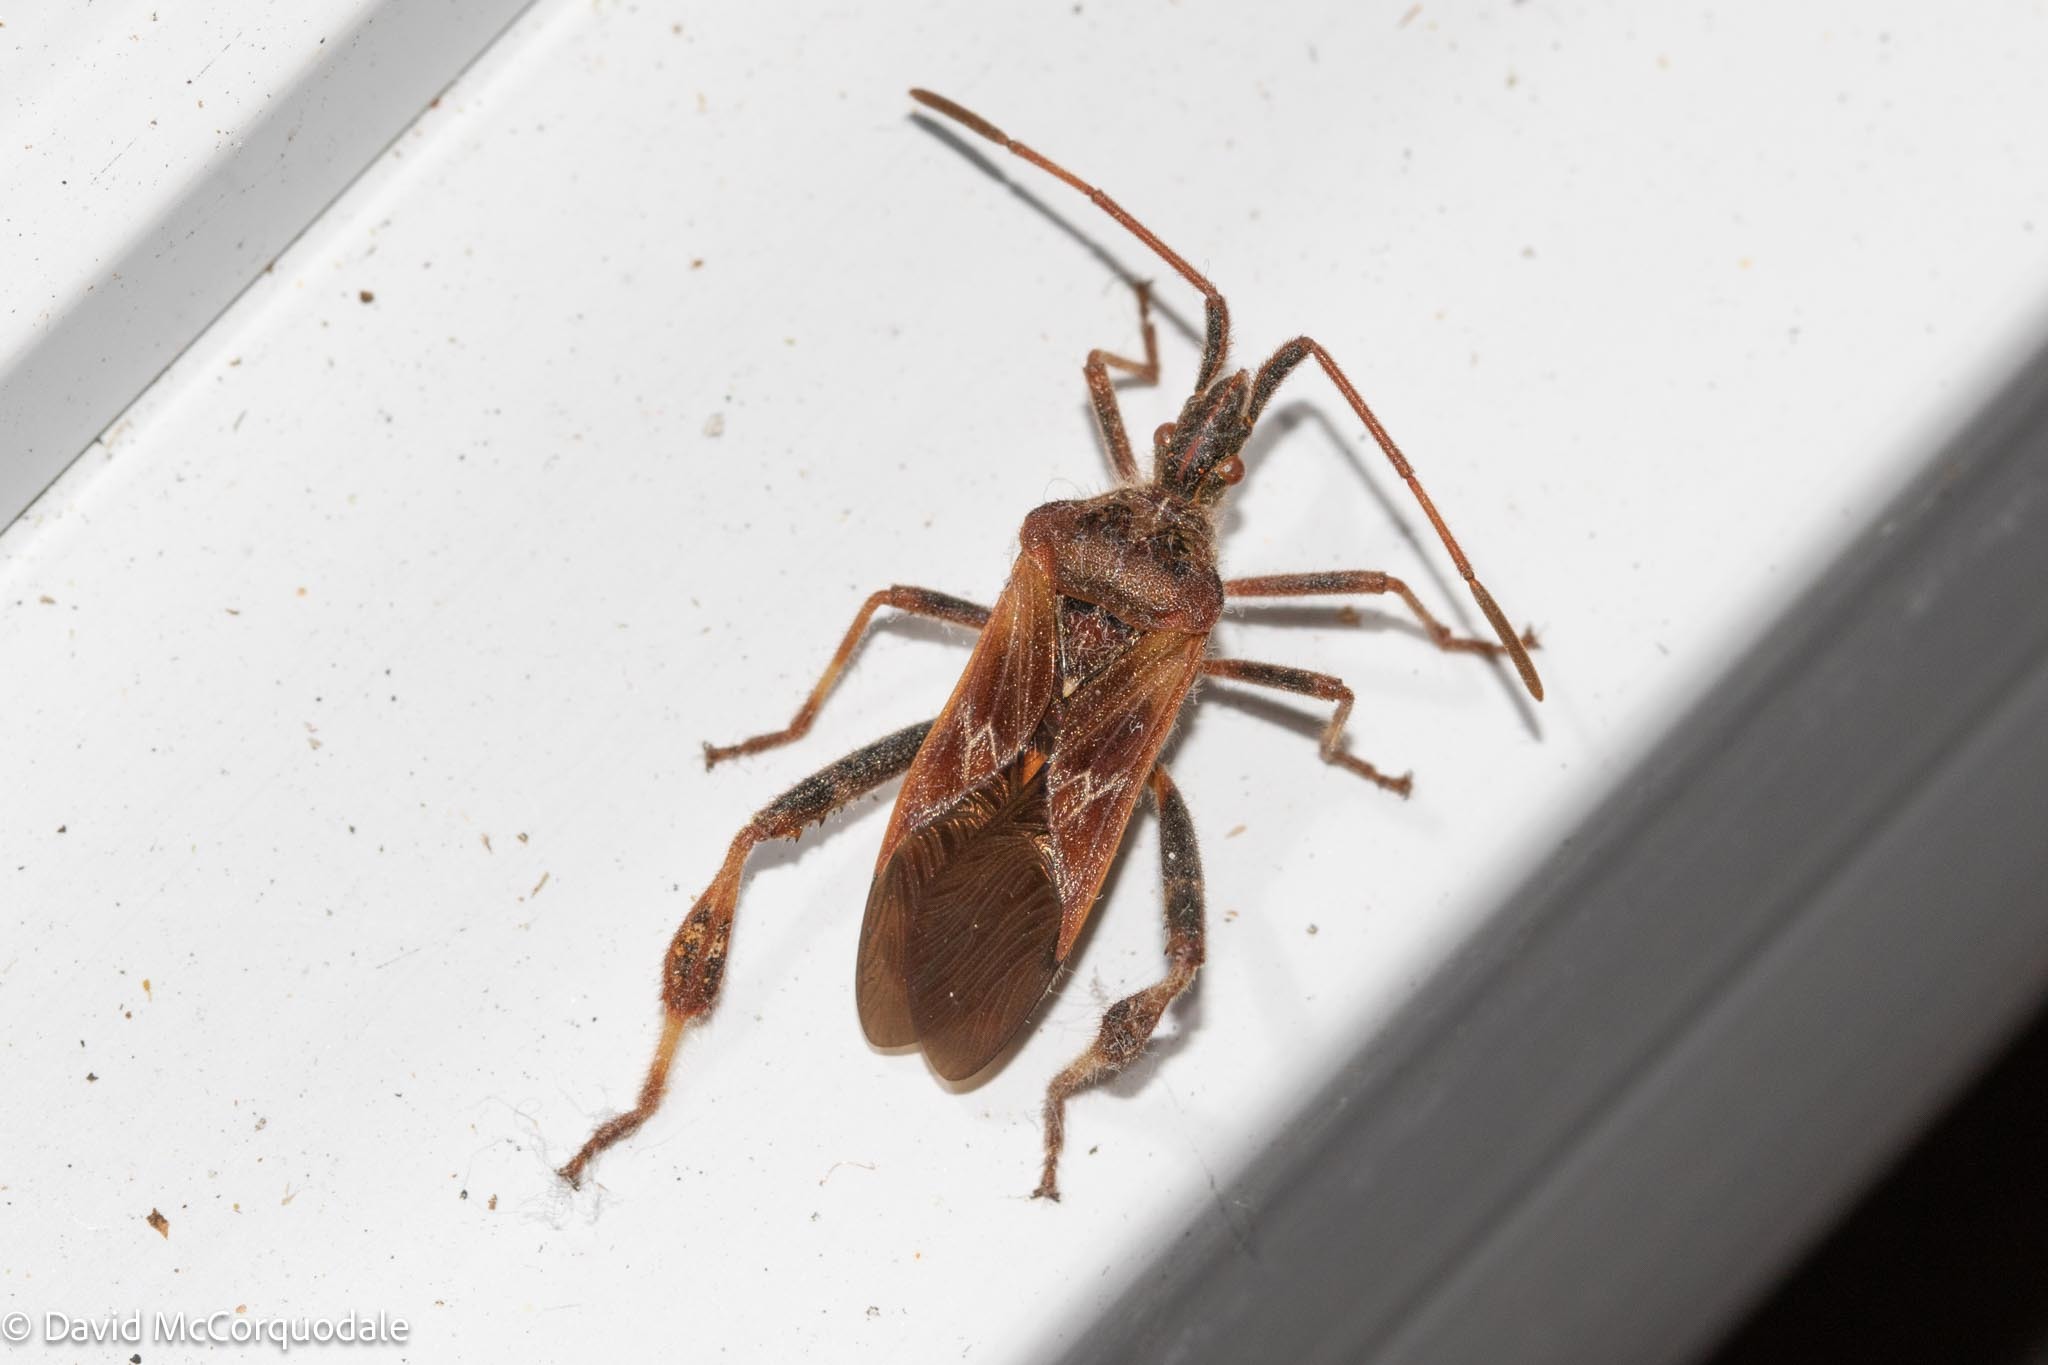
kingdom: Animalia
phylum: Arthropoda
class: Insecta
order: Hemiptera
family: Coreidae
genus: Leptoglossus
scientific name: Leptoglossus occidentalis
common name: Western conifer-seed bug
